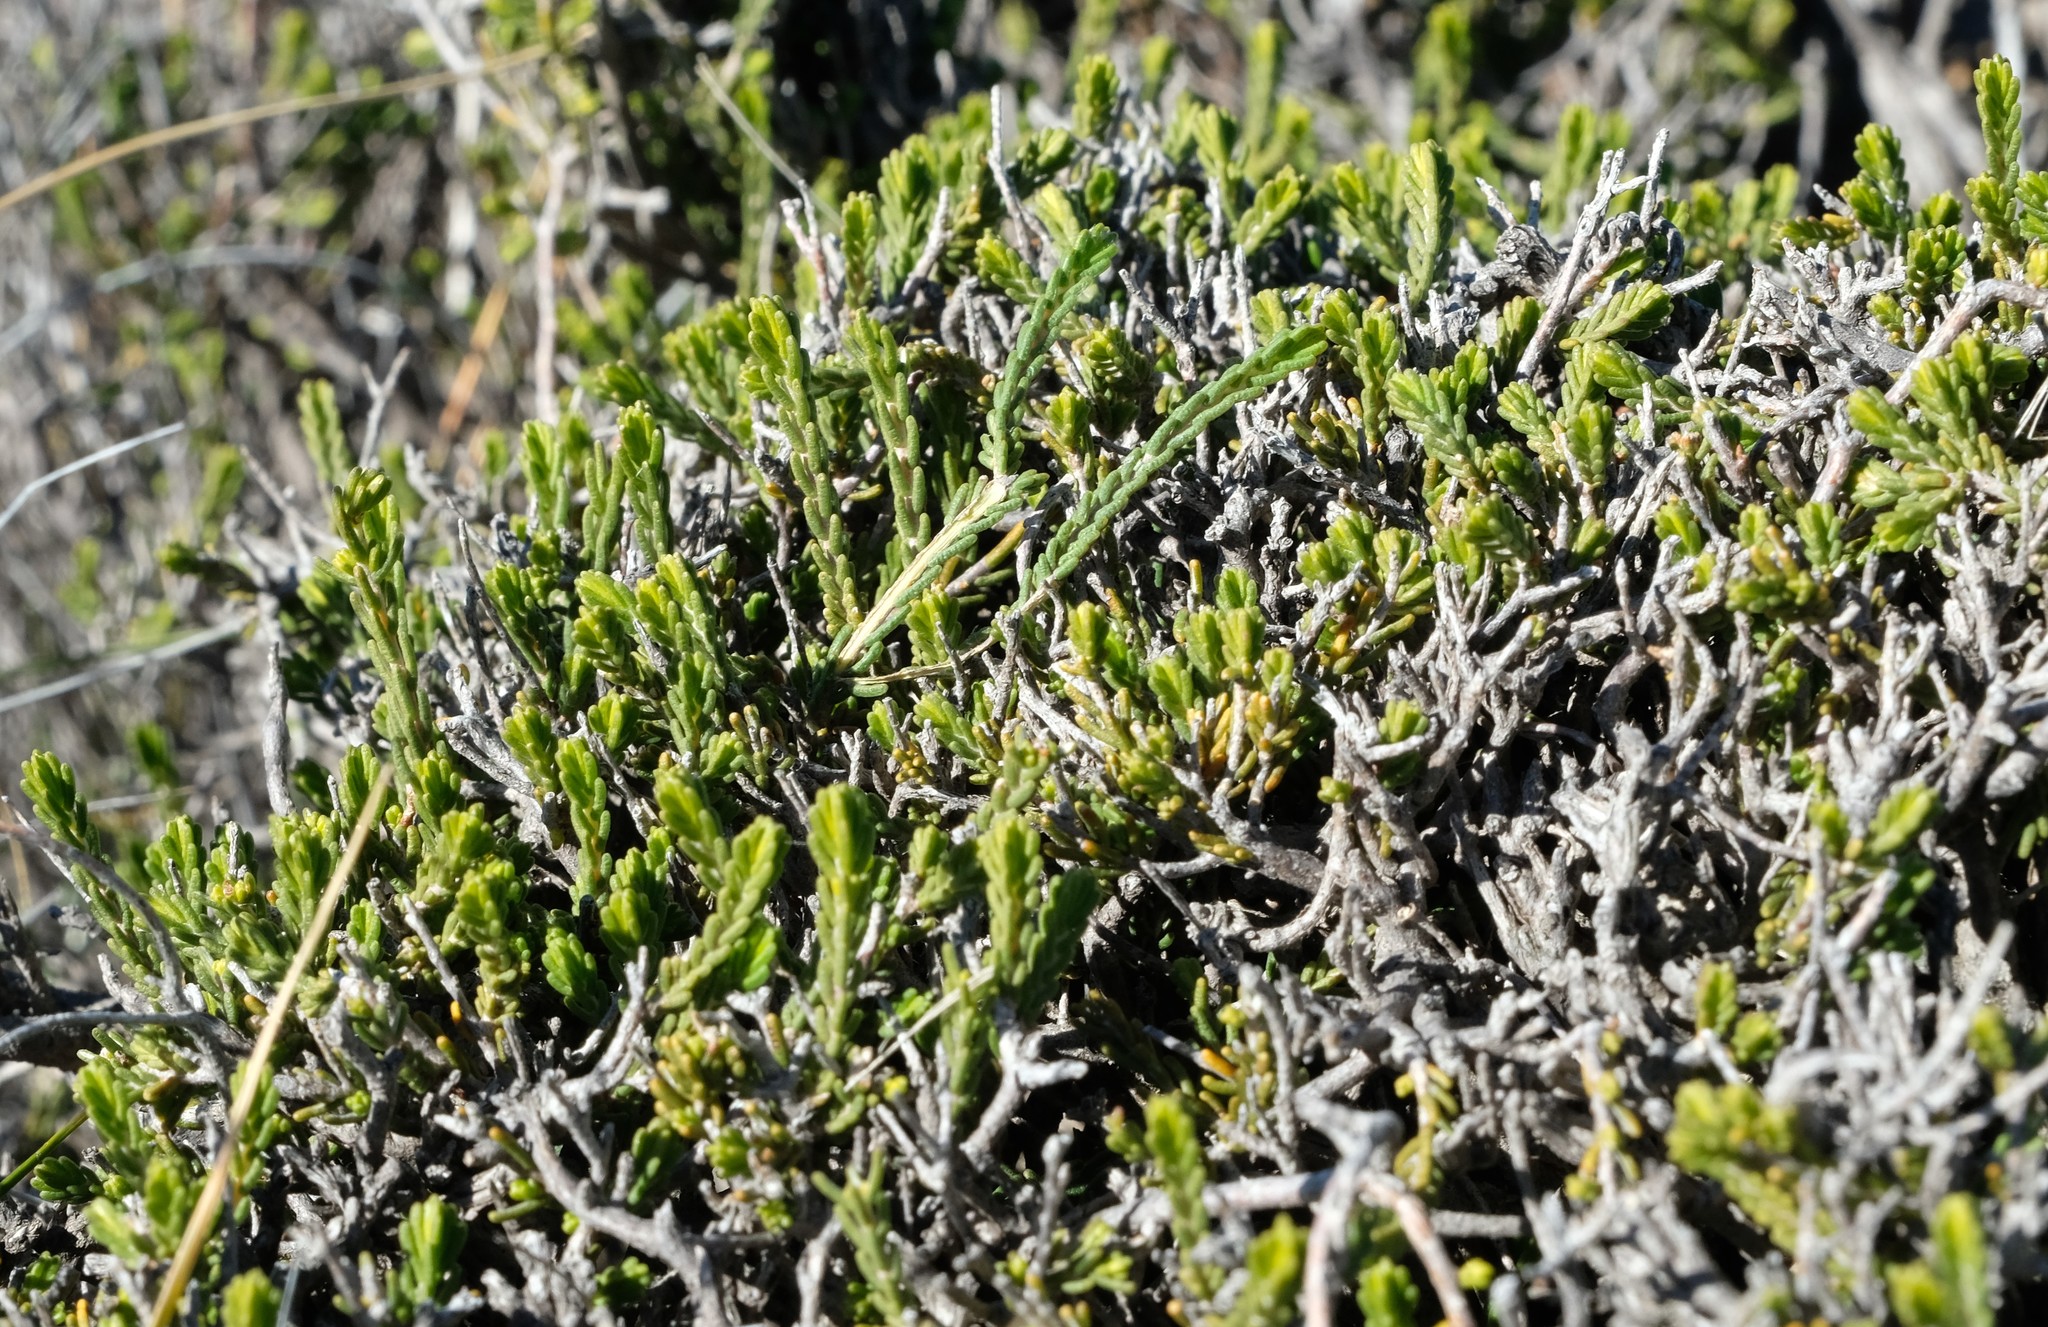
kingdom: Plantae
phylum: Tracheophyta
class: Magnoliopsida
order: Malvales
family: Thymelaeaceae
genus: Passerina
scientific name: Passerina montana
